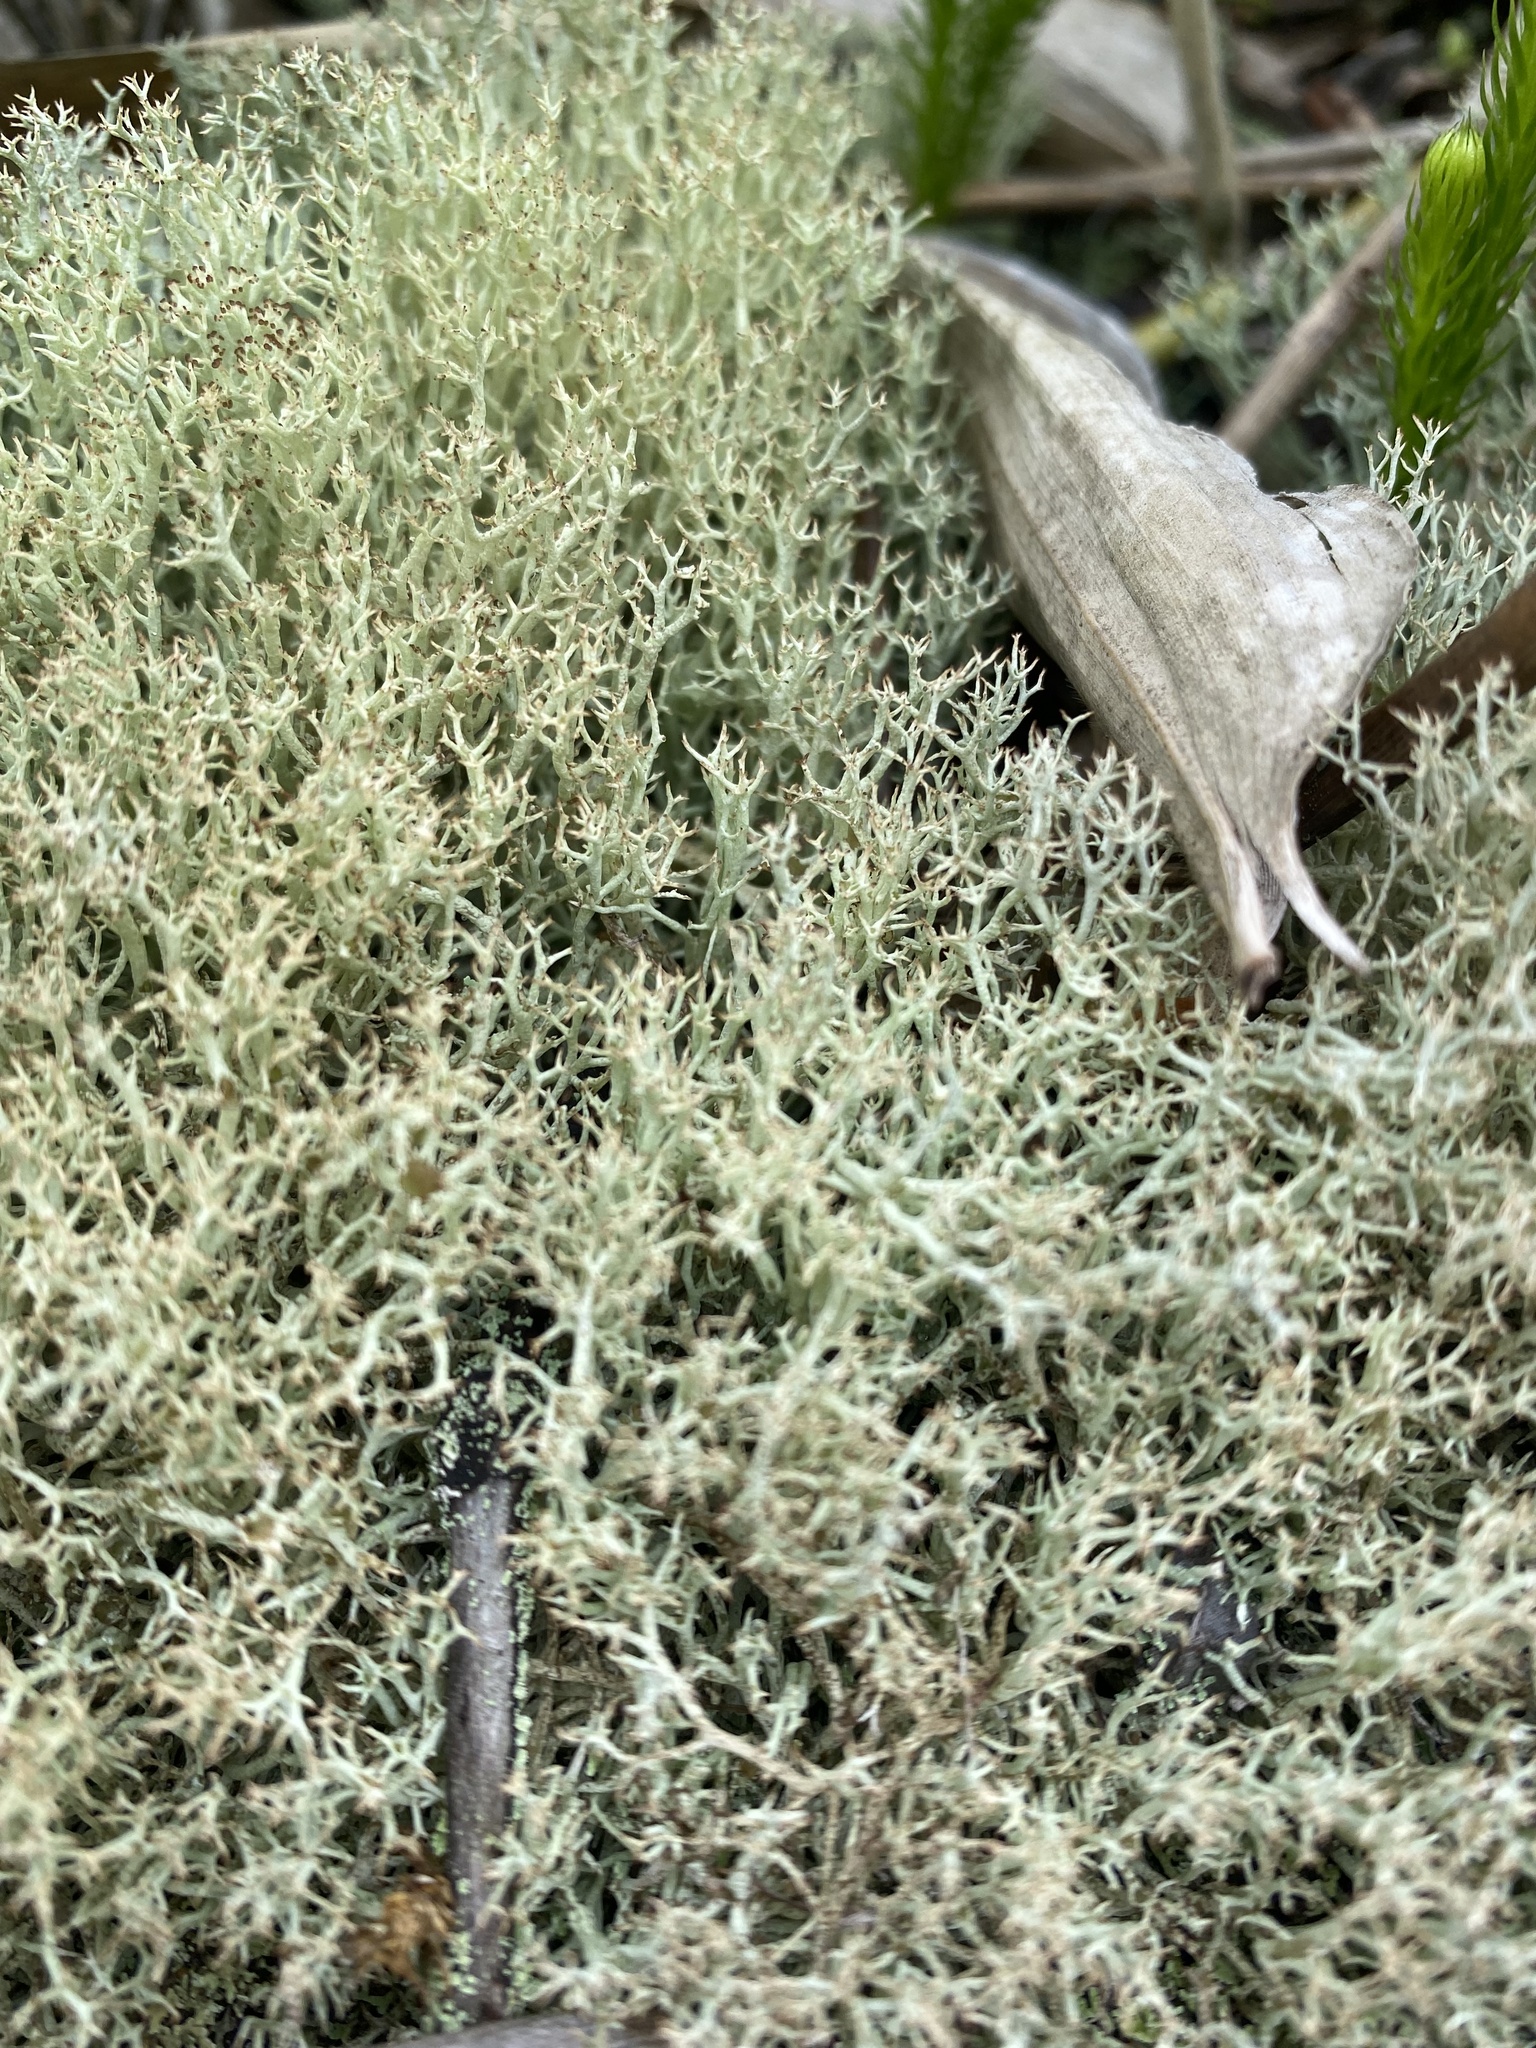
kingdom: Fungi
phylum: Ascomycota
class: Lecanoromycetes
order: Lecanorales
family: Cladoniaceae
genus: Cladonia
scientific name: Cladonia
